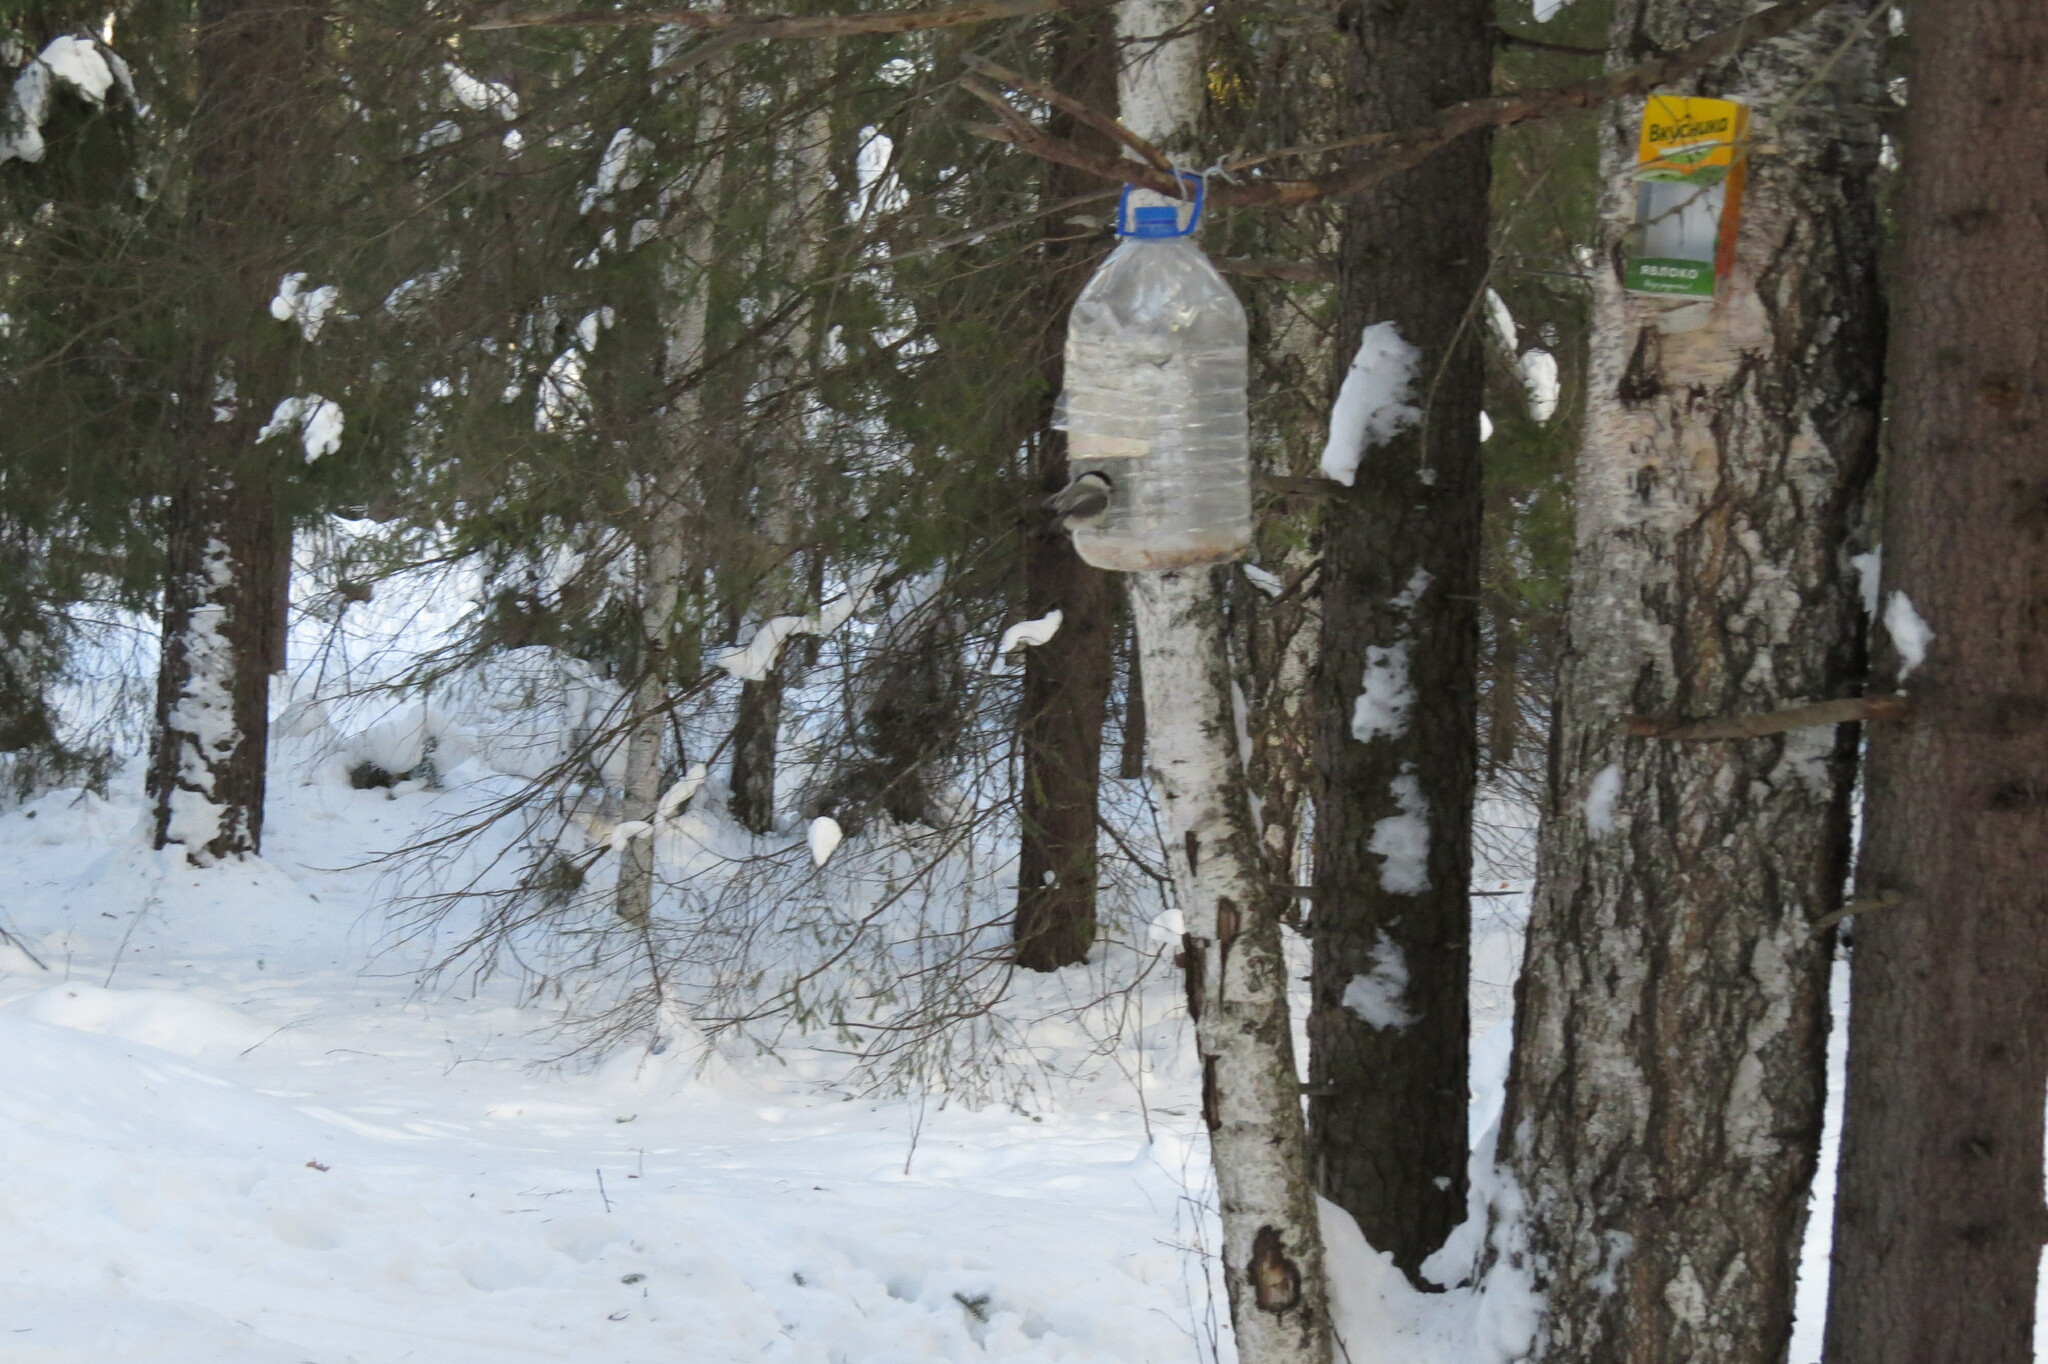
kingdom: Animalia
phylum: Chordata
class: Aves
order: Passeriformes
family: Paridae
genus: Poecile
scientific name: Poecile montanus
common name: Willow tit
